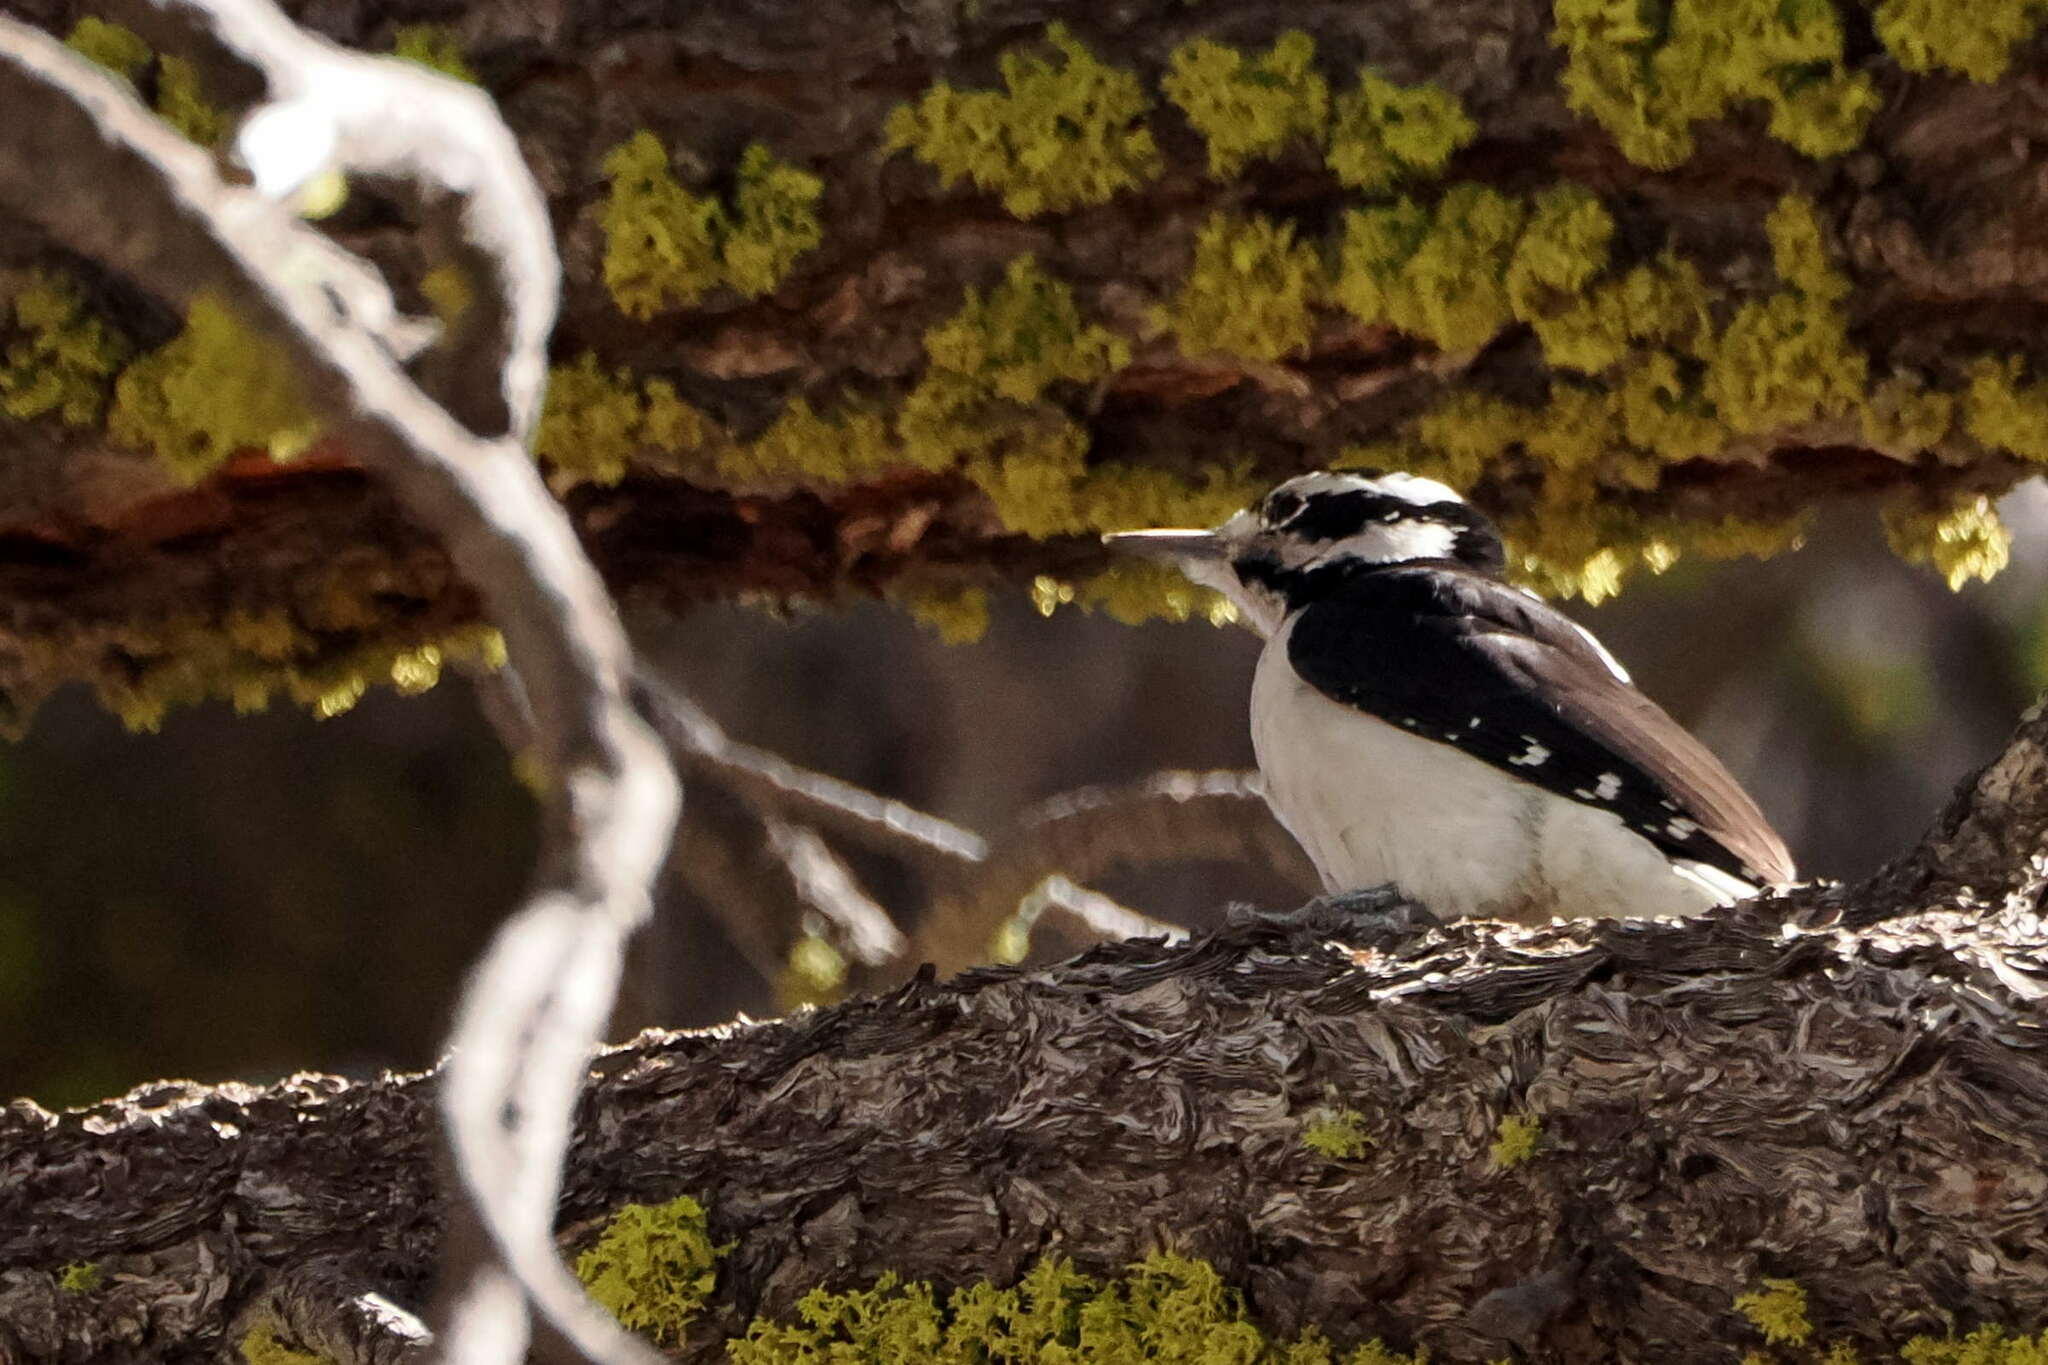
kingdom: Animalia
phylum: Chordata
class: Aves
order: Piciformes
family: Picidae
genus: Leuconotopicus
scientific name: Leuconotopicus villosus
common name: Hairy woodpecker
